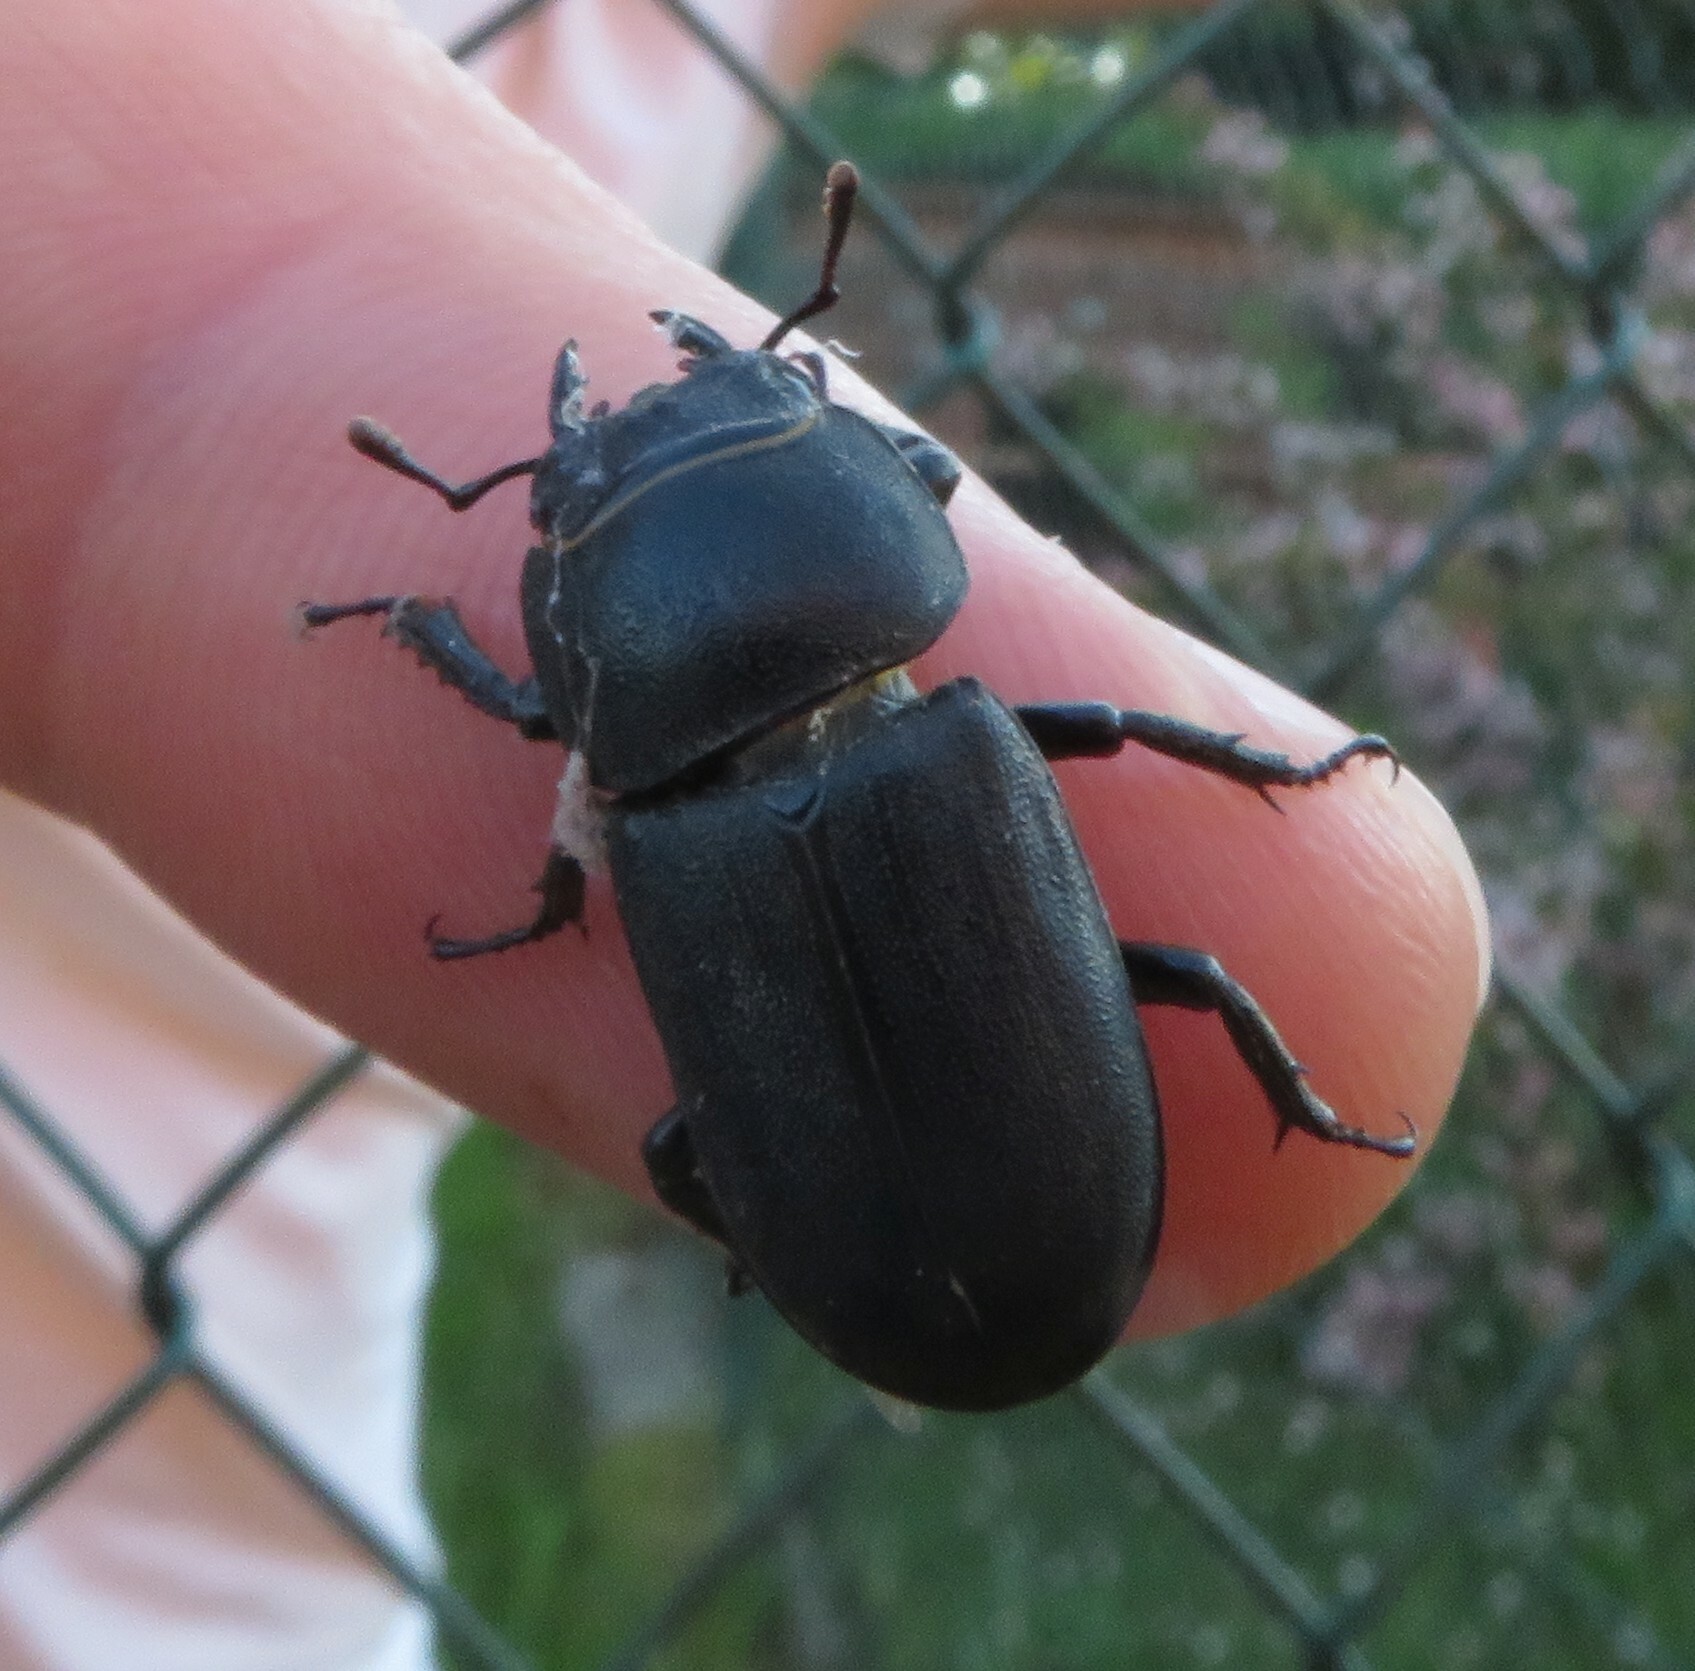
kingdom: Animalia
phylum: Arthropoda
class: Insecta
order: Coleoptera
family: Lucanidae
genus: Dorcus
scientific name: Dorcus parallelipipedus
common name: Lesser stag beetle
